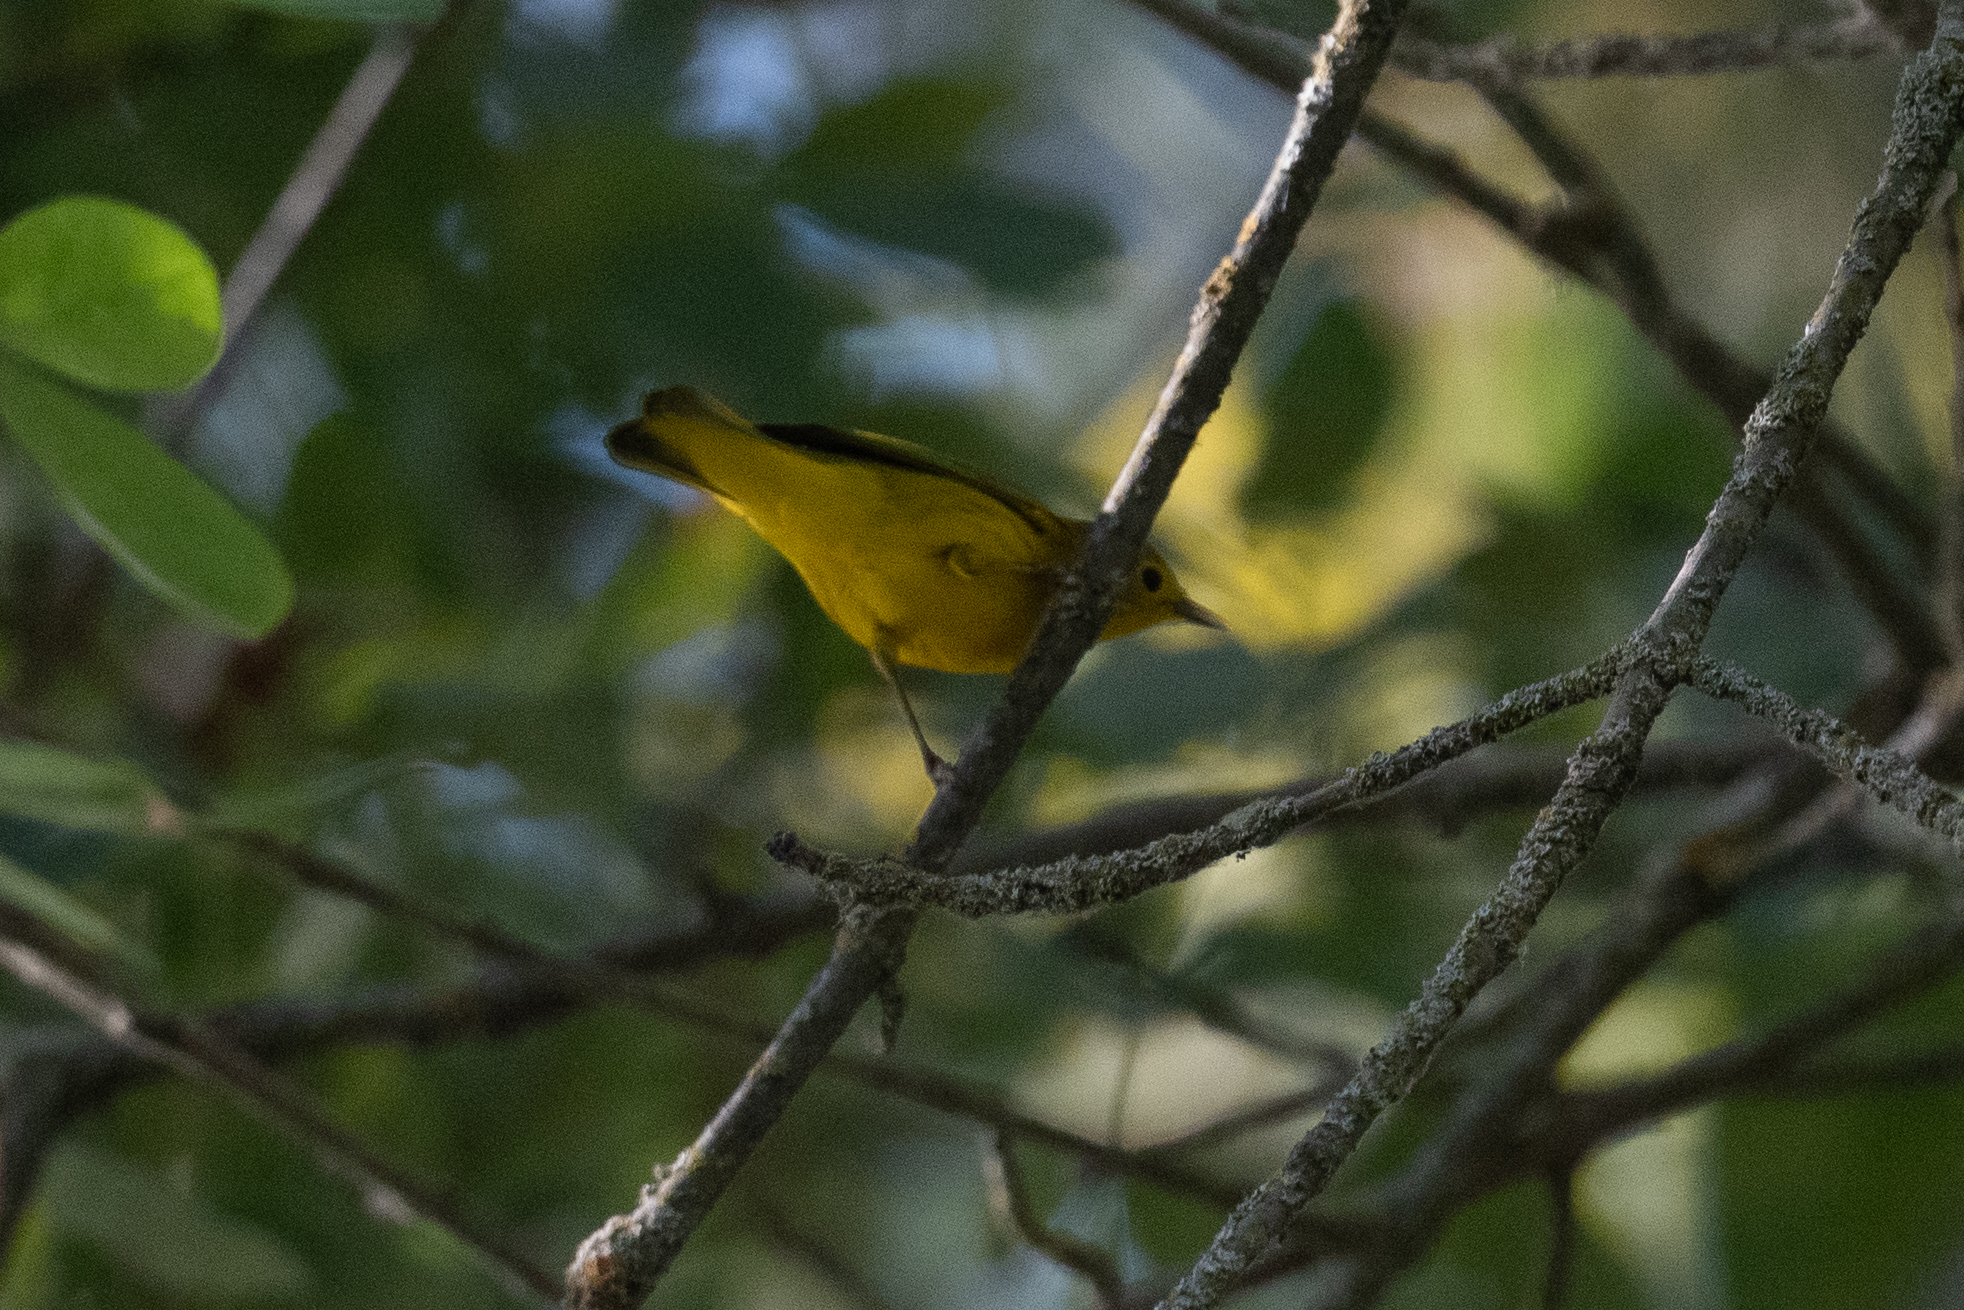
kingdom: Animalia
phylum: Chordata
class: Aves
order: Passeriformes
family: Parulidae
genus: Setophaga
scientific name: Setophaga petechia
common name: Yellow warbler
